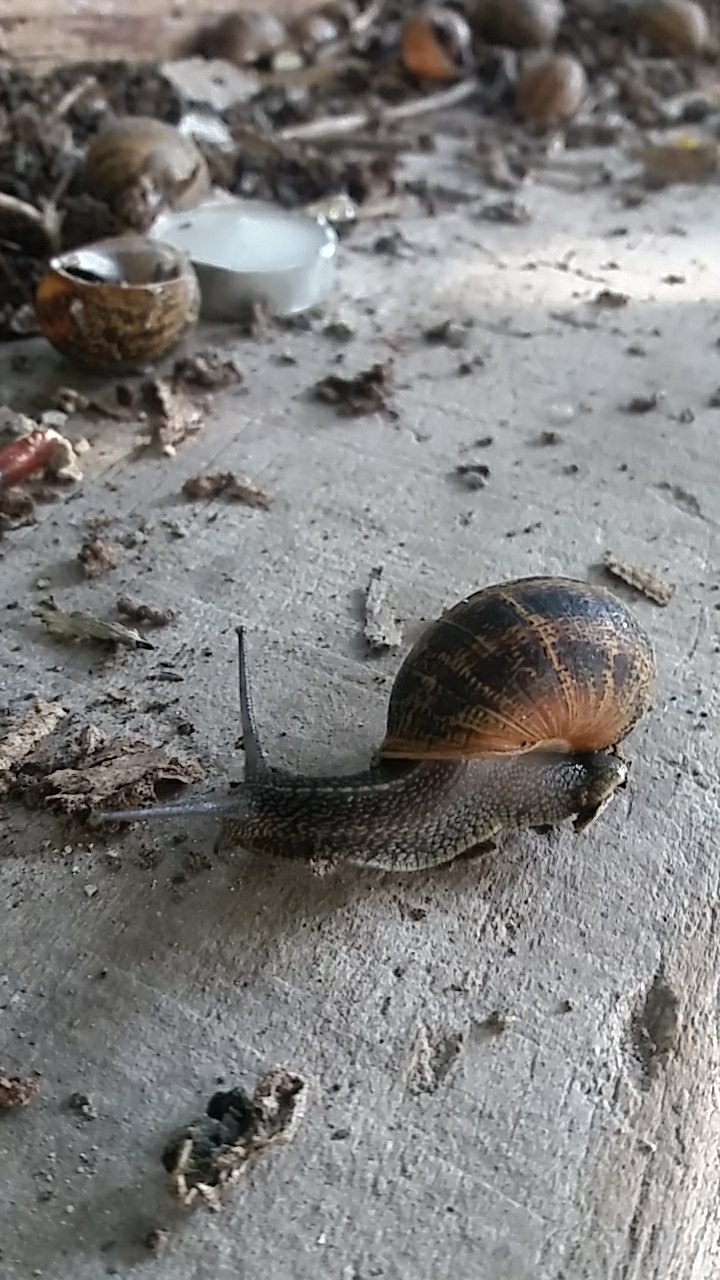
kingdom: Animalia
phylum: Mollusca
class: Gastropoda
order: Stylommatophora
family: Helicidae
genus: Cornu
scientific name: Cornu aspersum
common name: Brown garden snail
